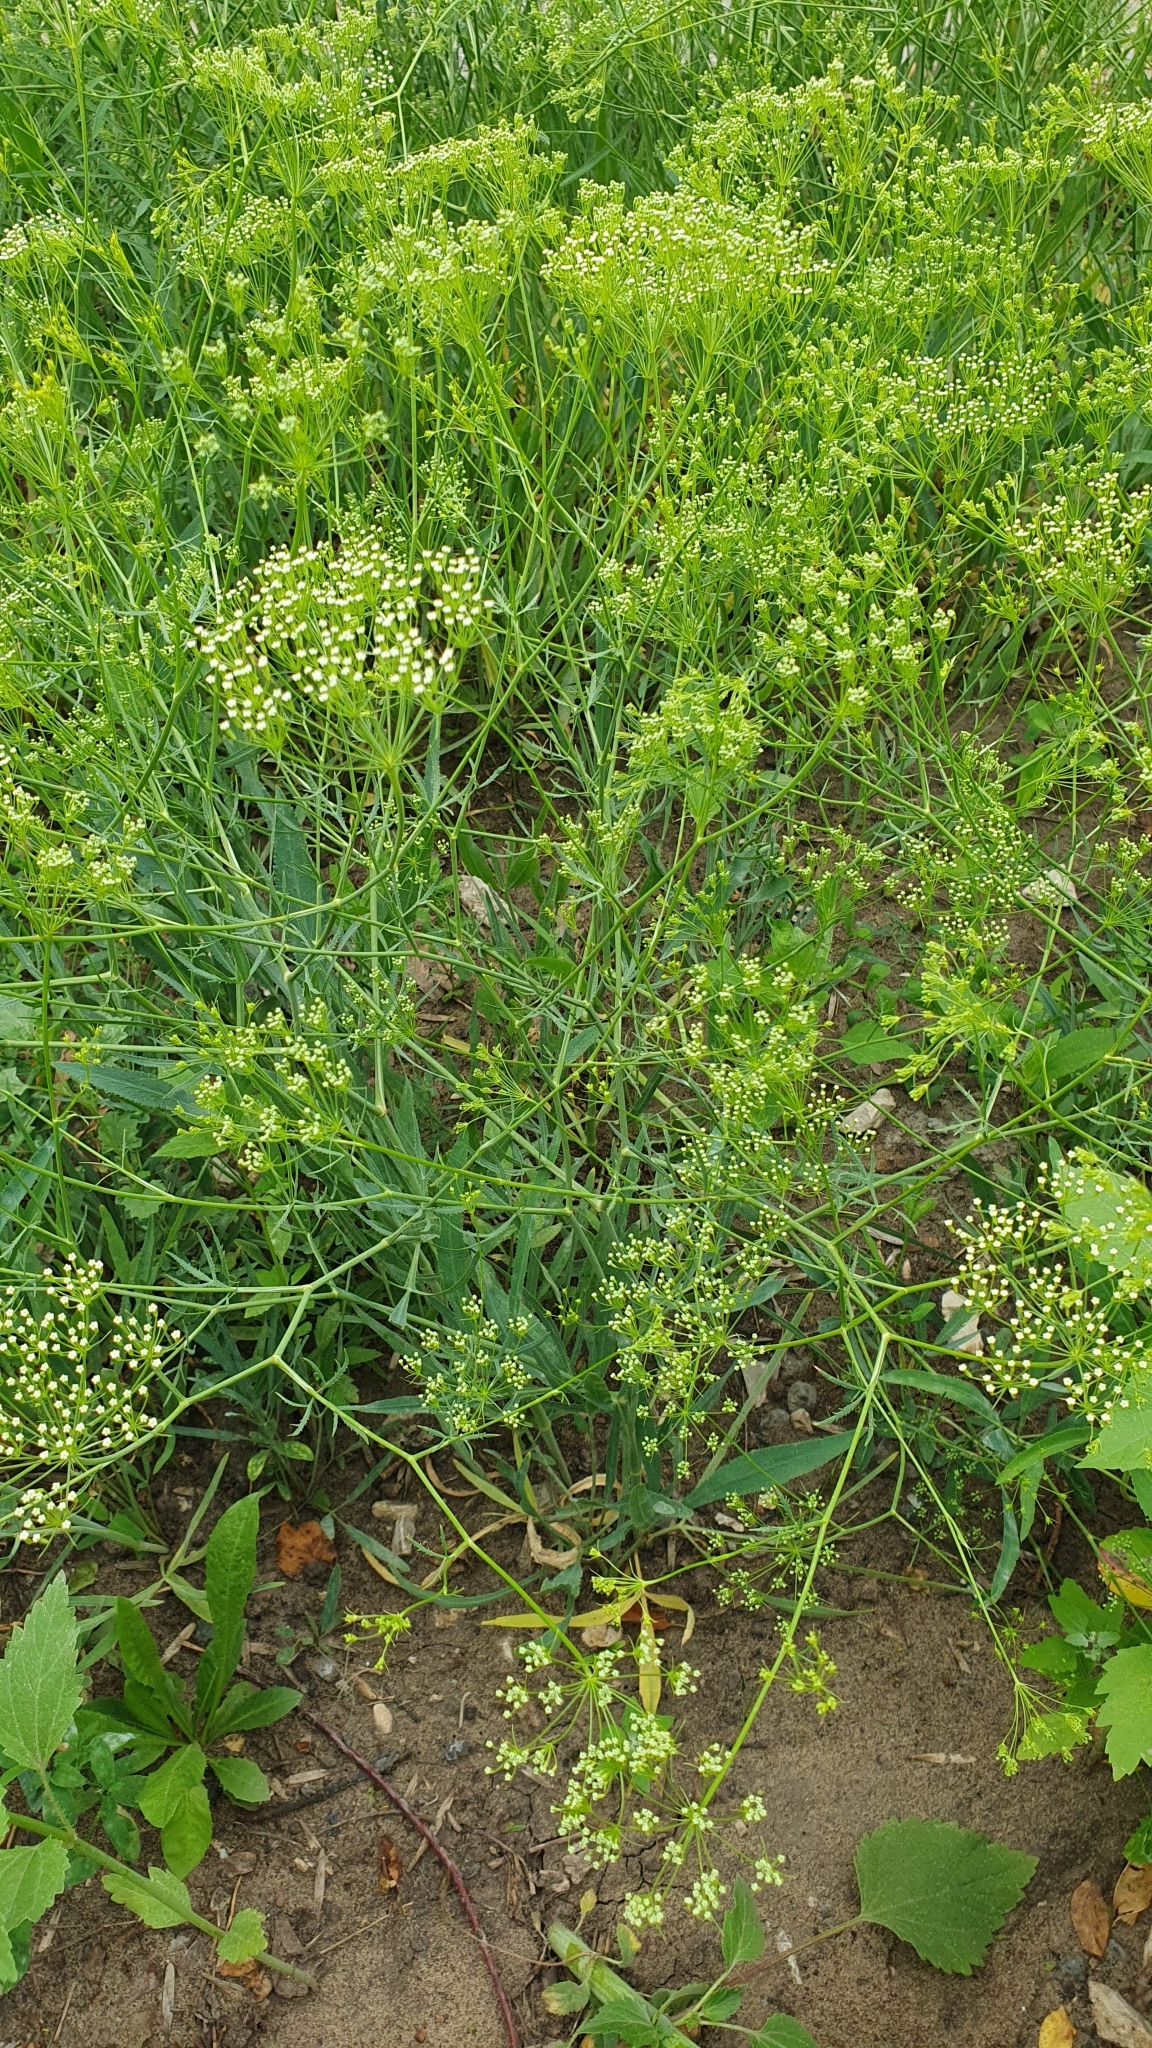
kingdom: Plantae
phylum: Tracheophyta
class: Magnoliopsida
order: Apiales
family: Apiaceae
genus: Falcaria
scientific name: Falcaria vulgaris
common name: Longleaf
